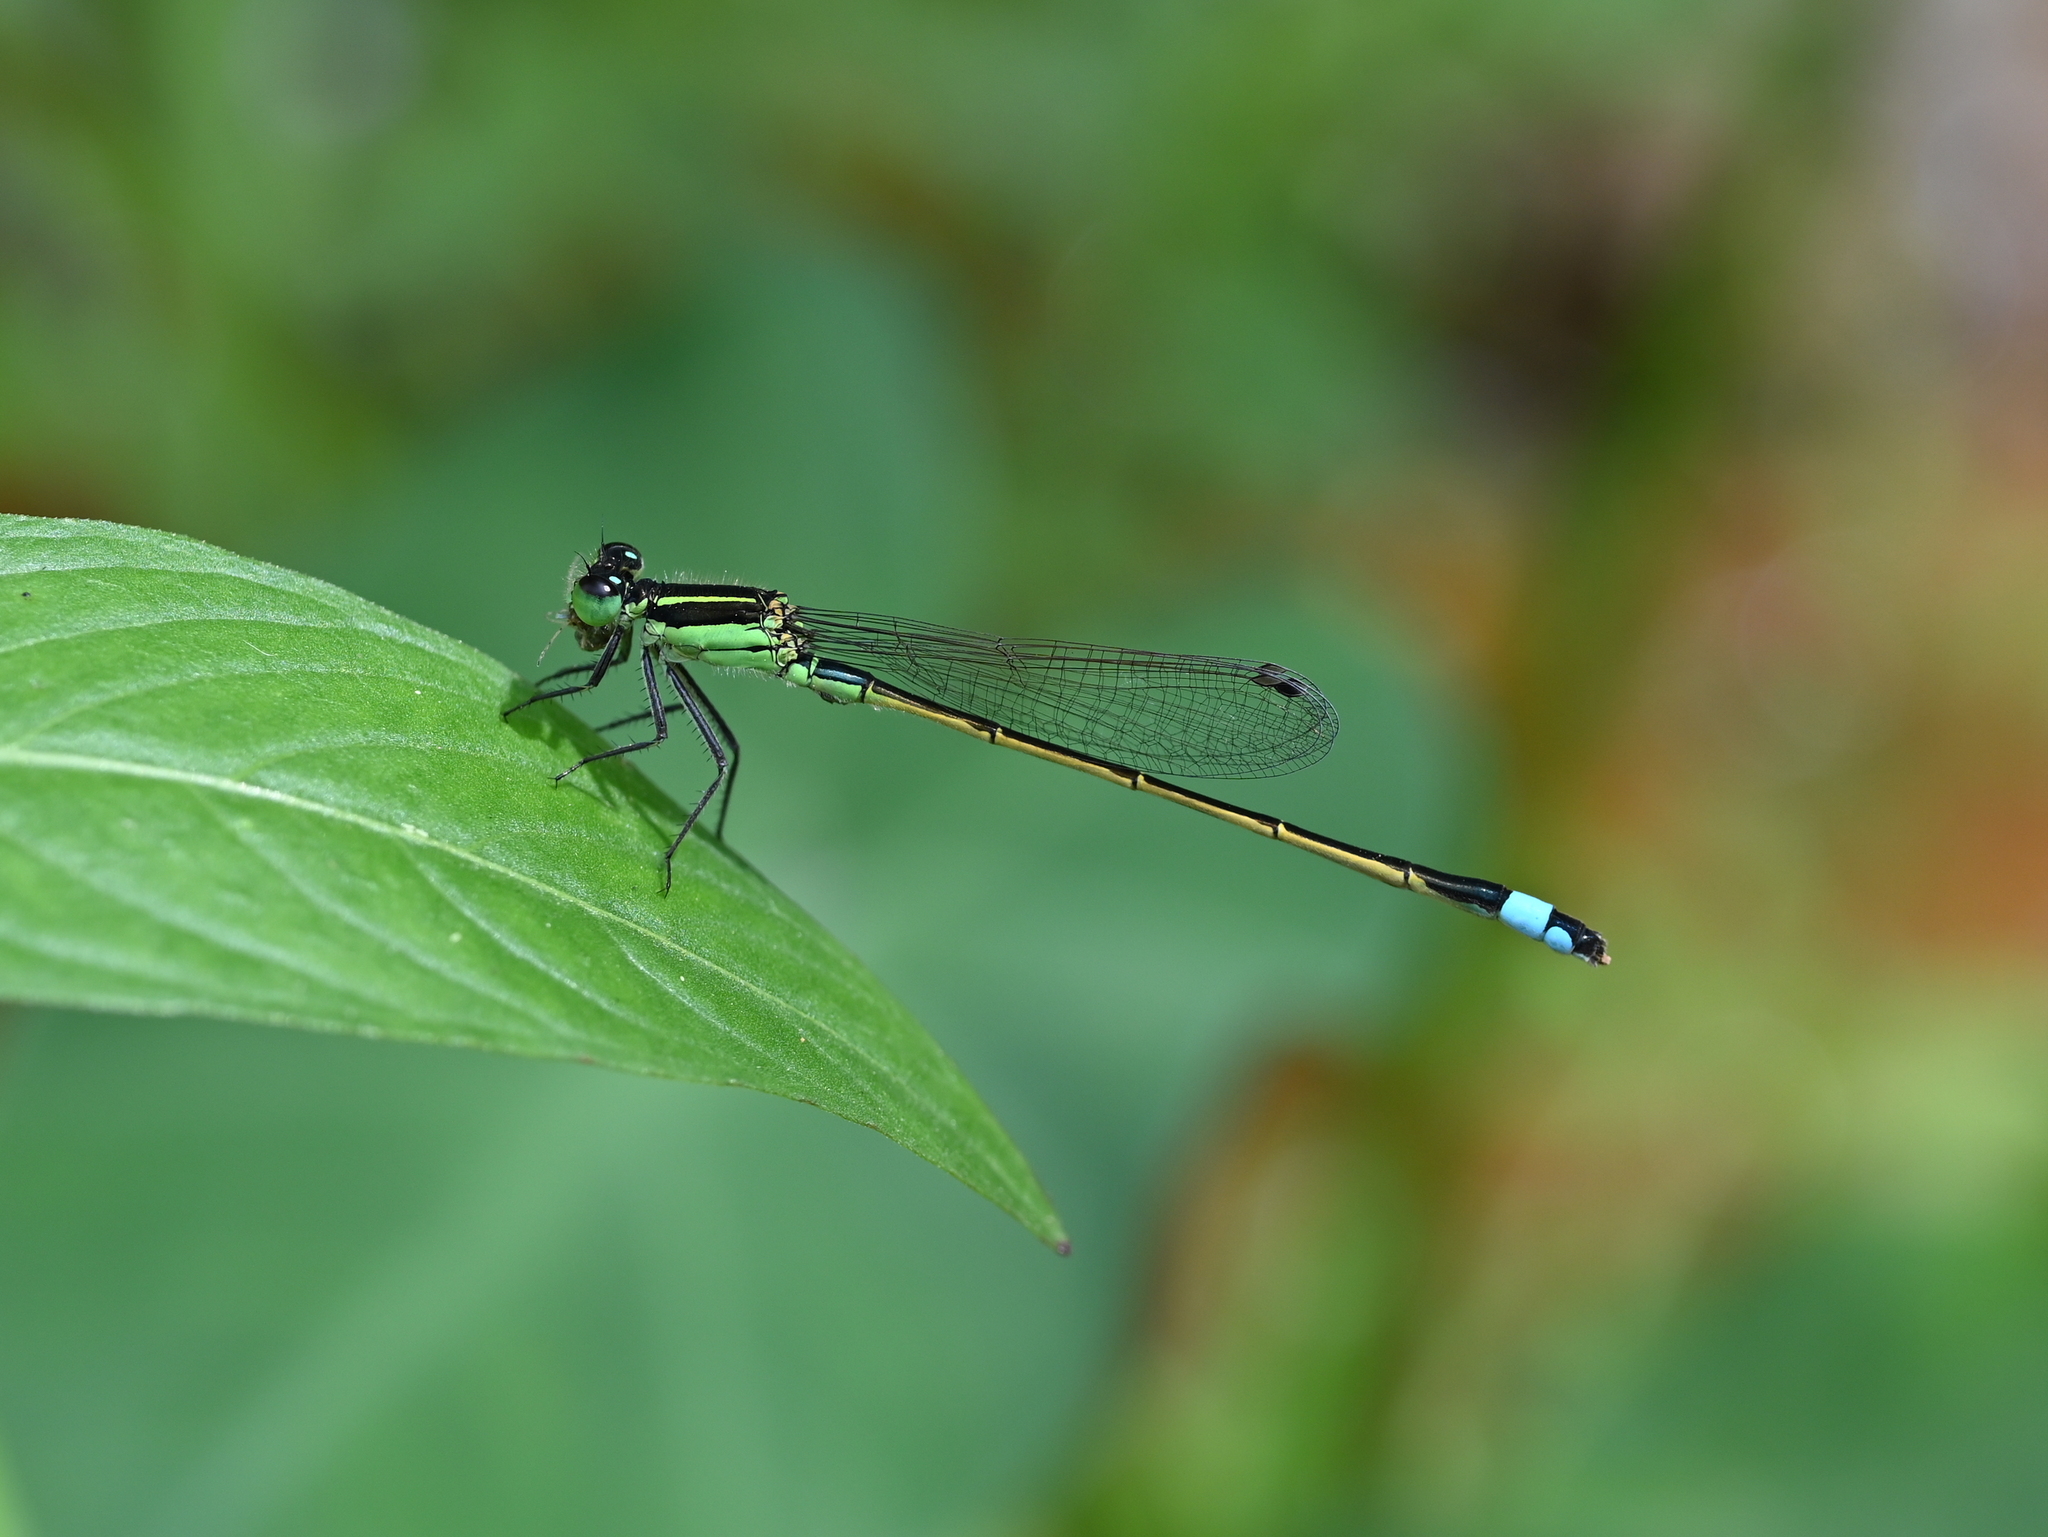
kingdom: Animalia
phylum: Arthropoda
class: Insecta
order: Odonata
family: Coenagrionidae
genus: Ischnura
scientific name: Ischnura ramburii
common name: Rambur's forktail
